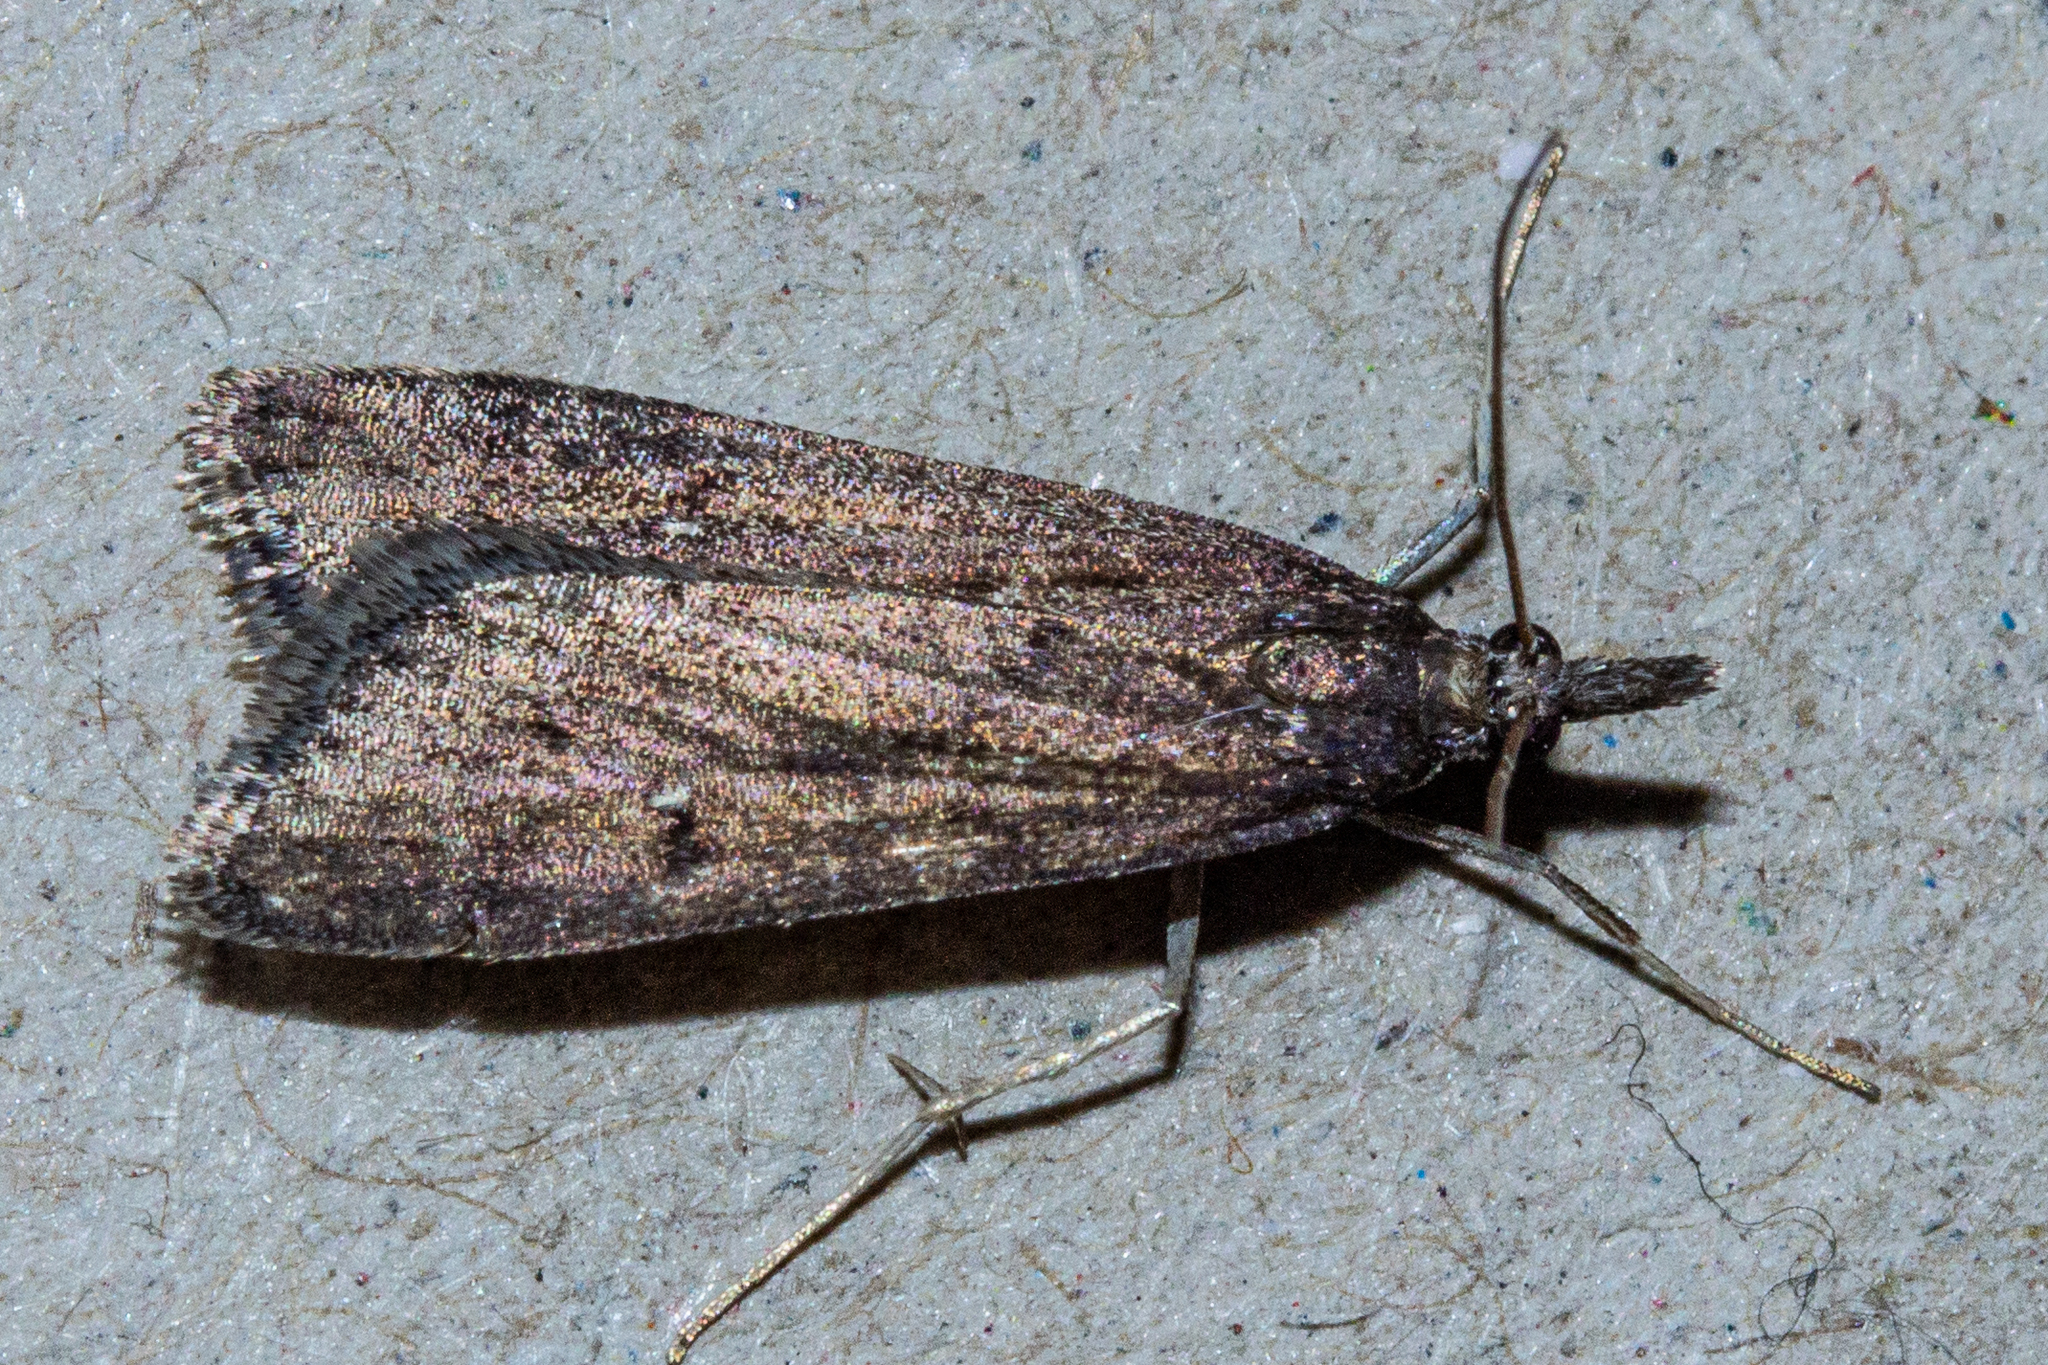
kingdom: Animalia
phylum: Arthropoda
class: Insecta
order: Lepidoptera
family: Crambidae
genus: Eudonia
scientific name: Eudonia oculata
